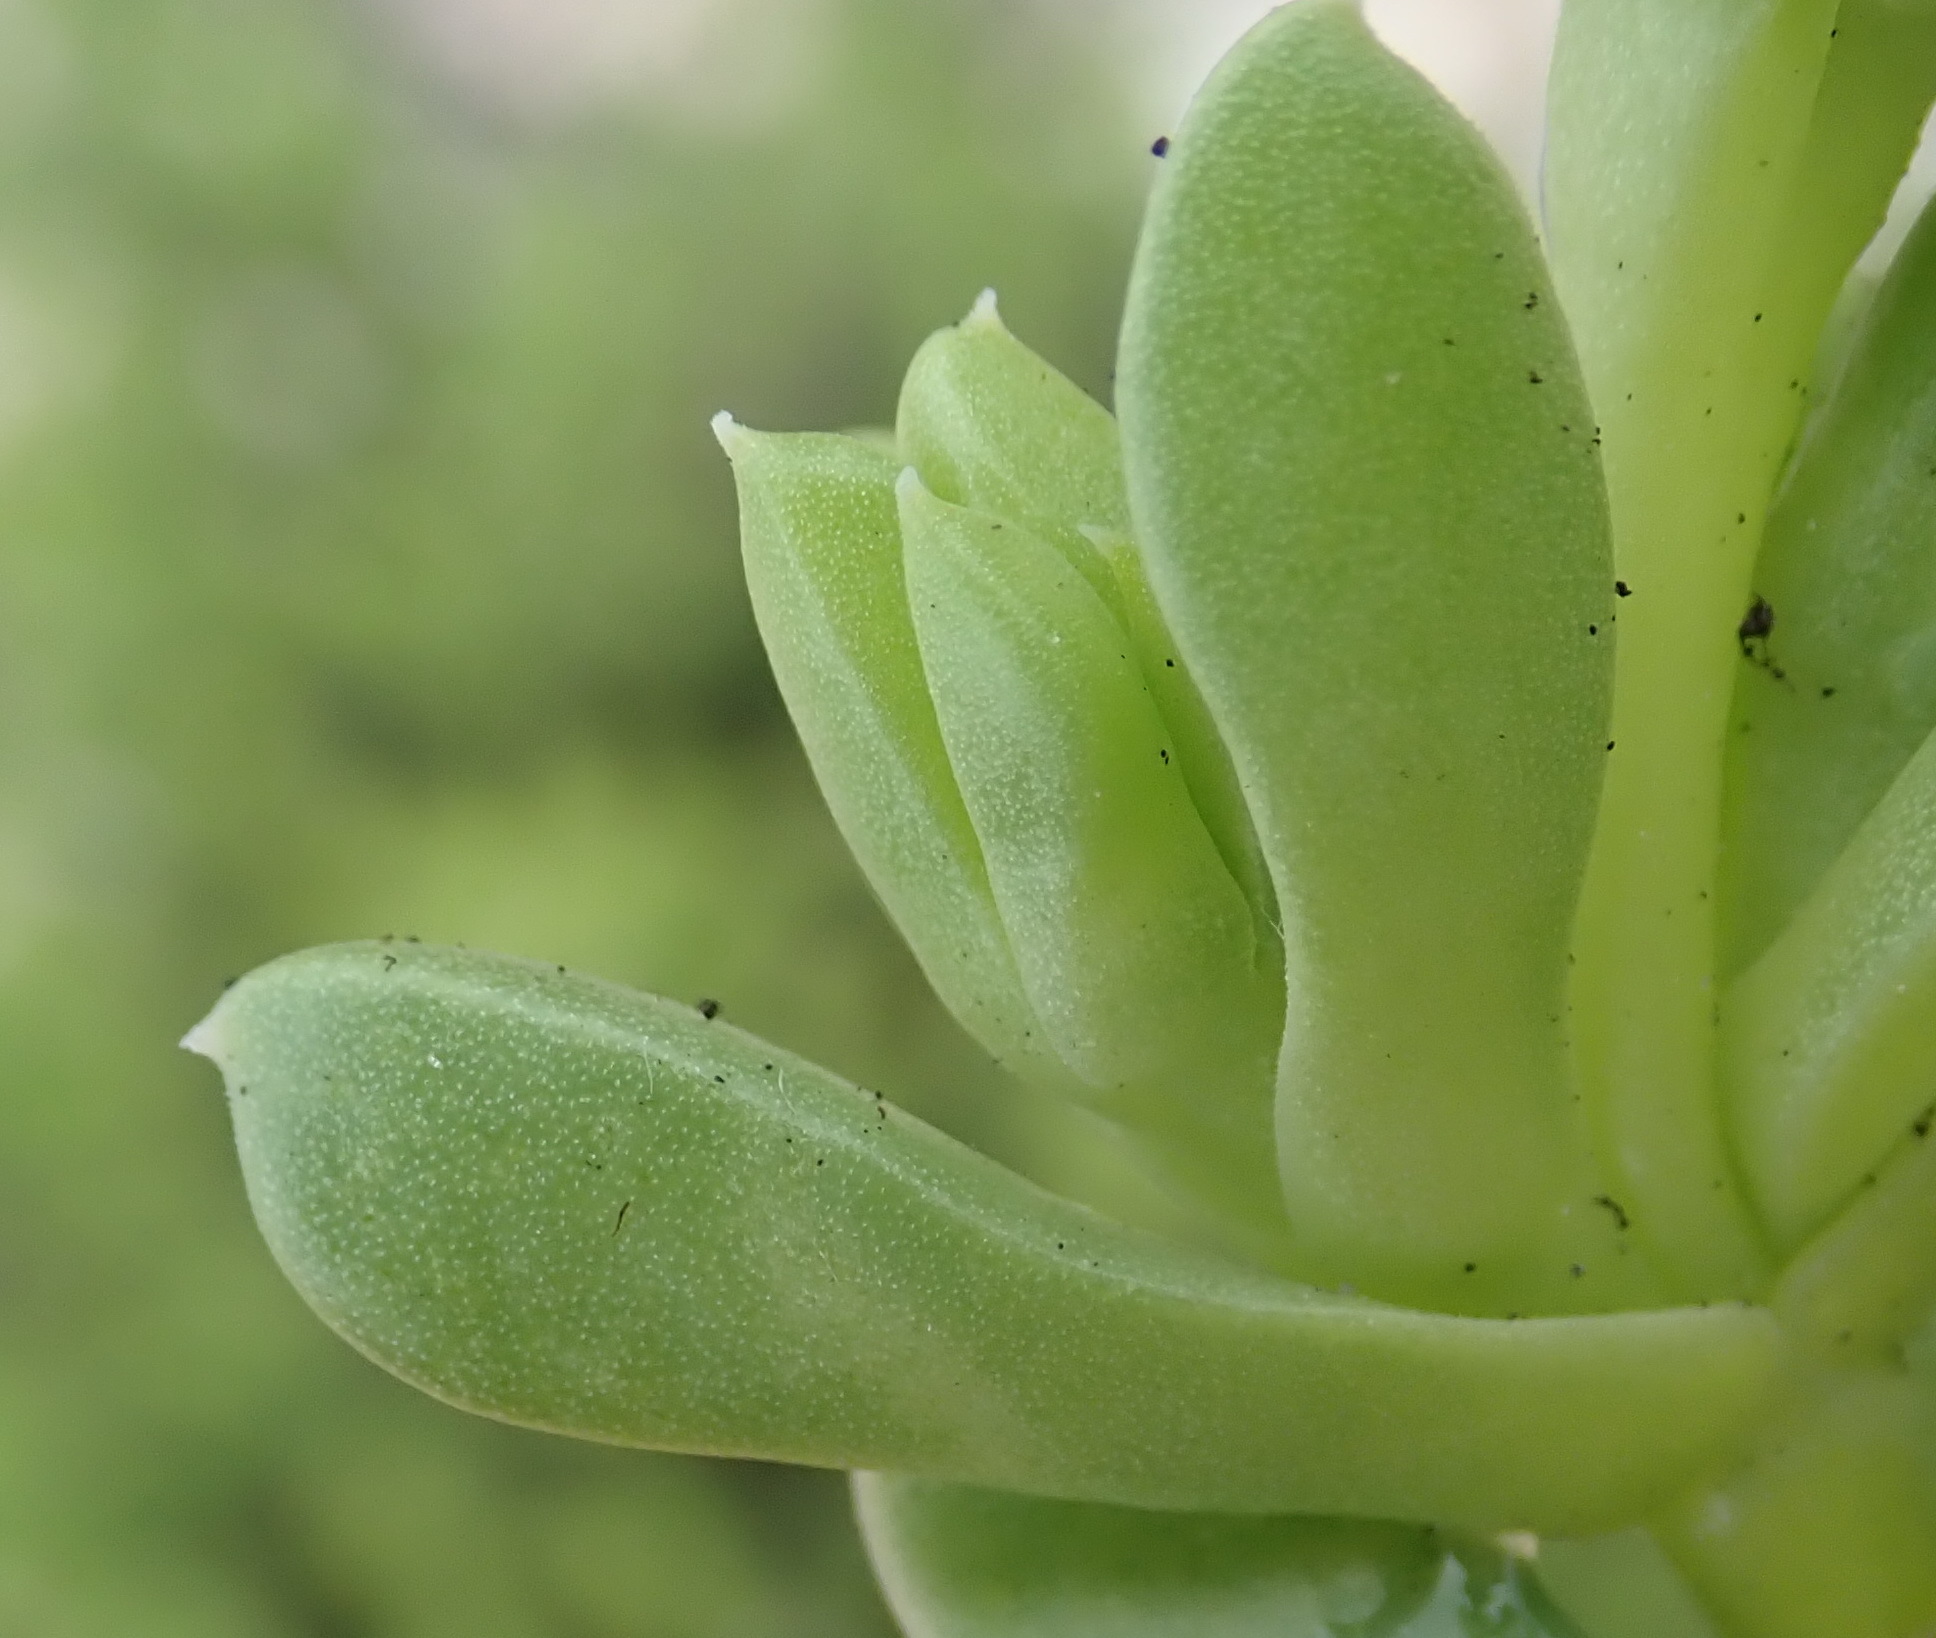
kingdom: Plantae
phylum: Tracheophyta
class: Magnoliopsida
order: Caryophyllales
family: Aizoaceae
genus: Delosperma
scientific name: Delosperma inconspicuum
